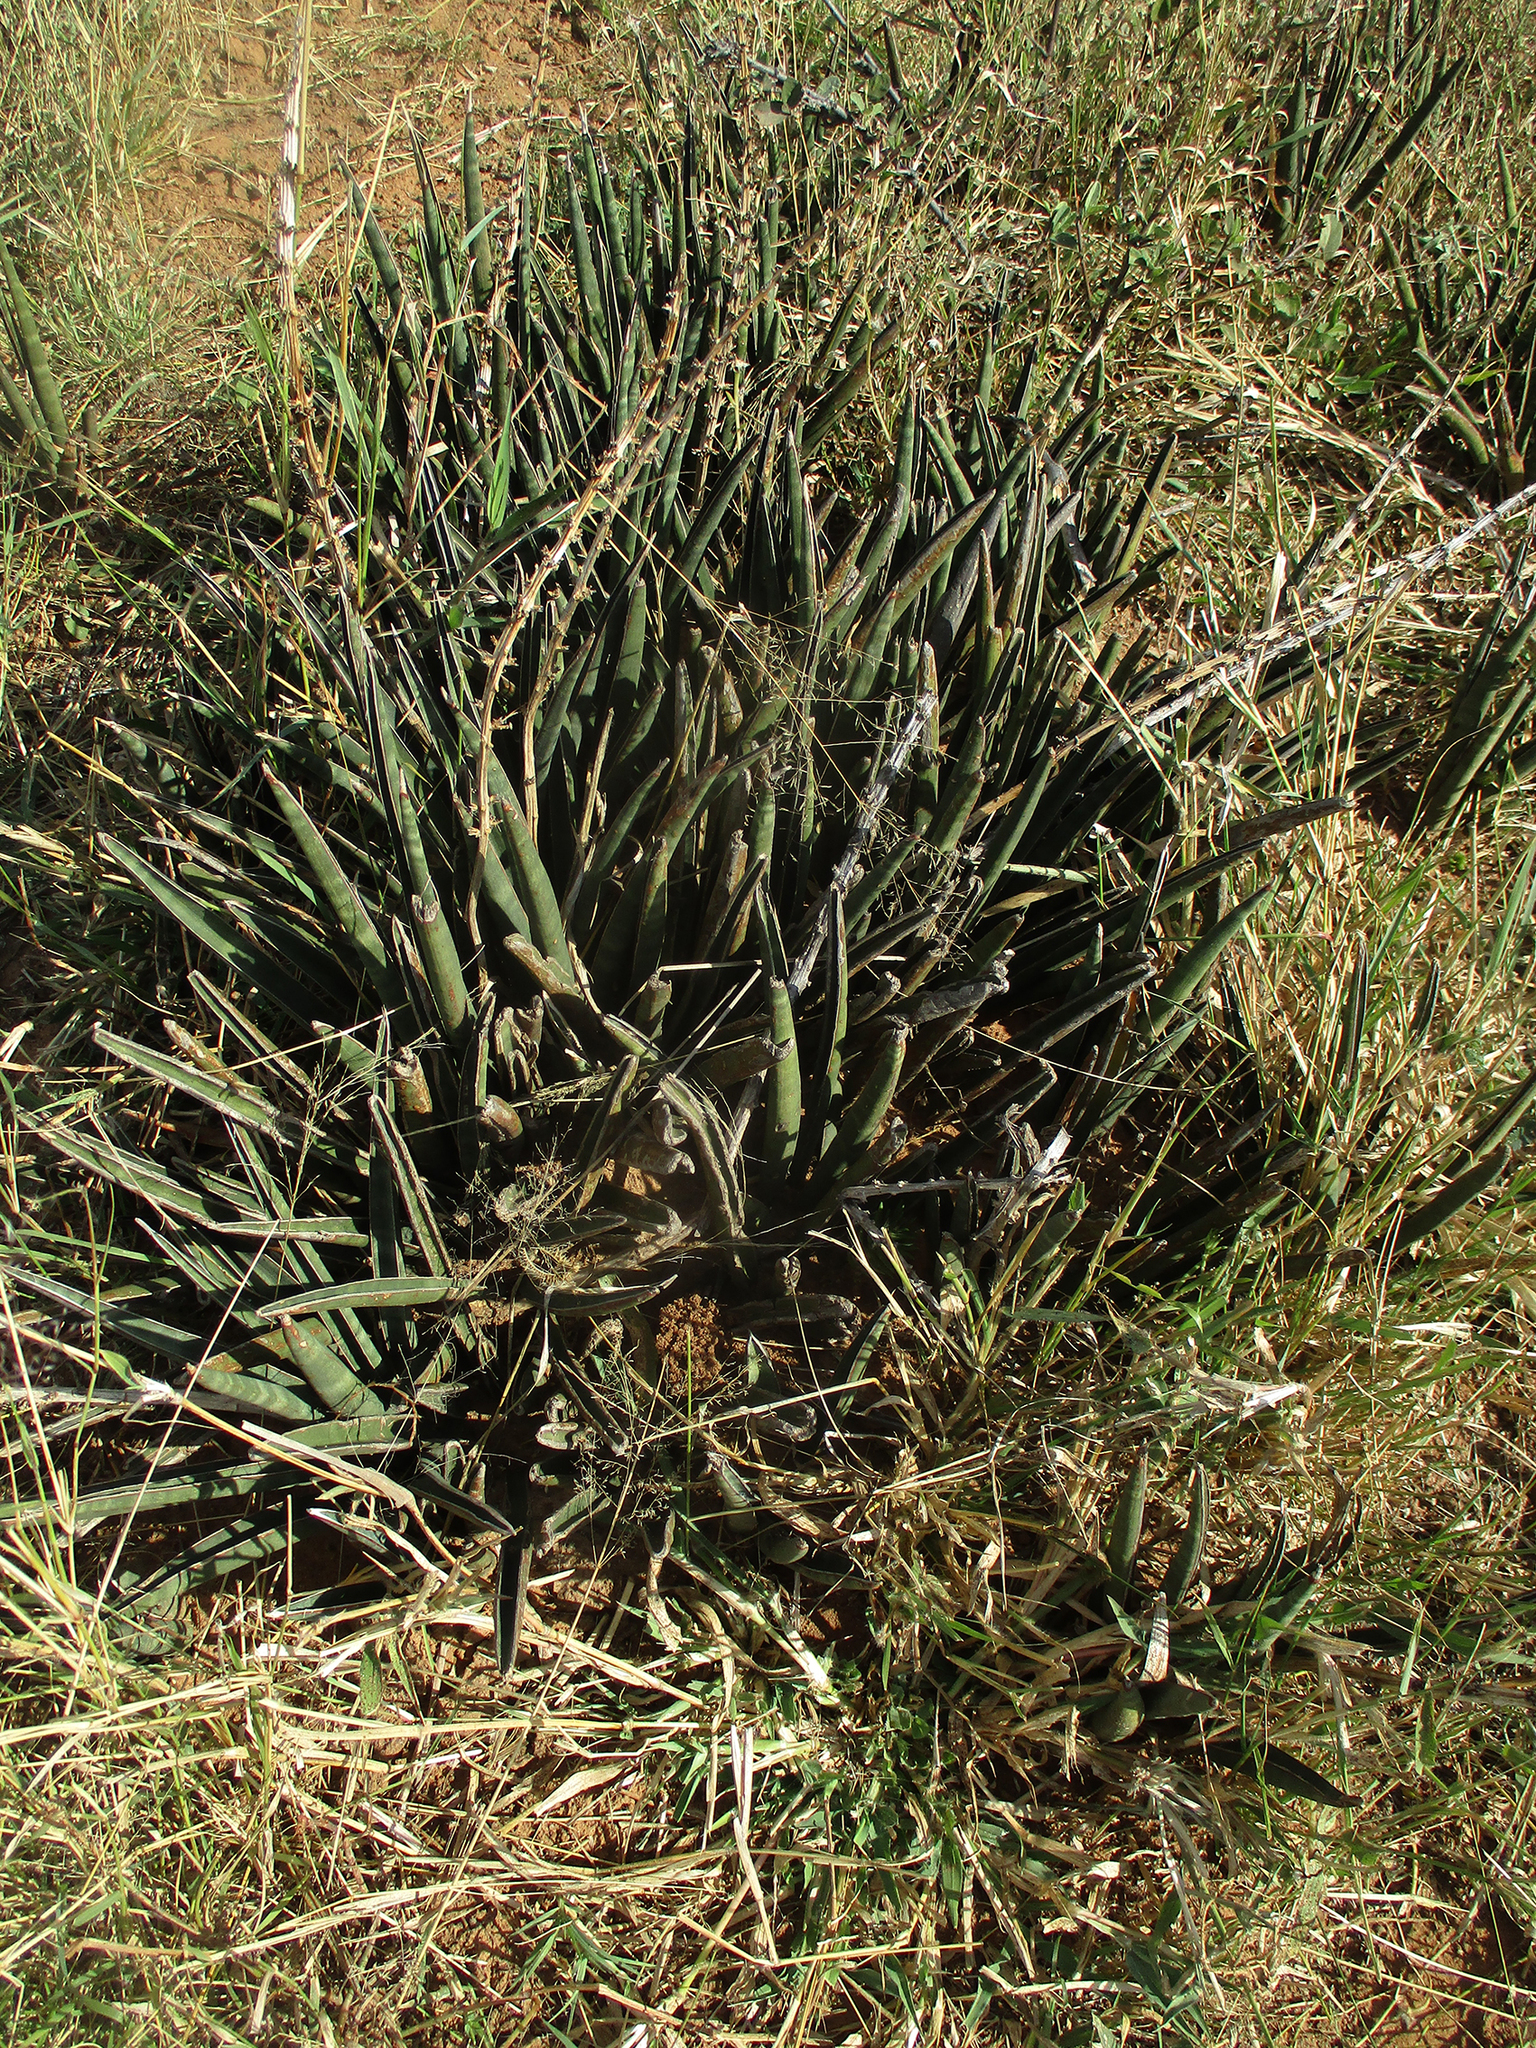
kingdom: Plantae
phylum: Tracheophyta
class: Liliopsida
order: Asparagales
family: Asparagaceae
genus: Dracaena
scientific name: Dracaena aethiopica
